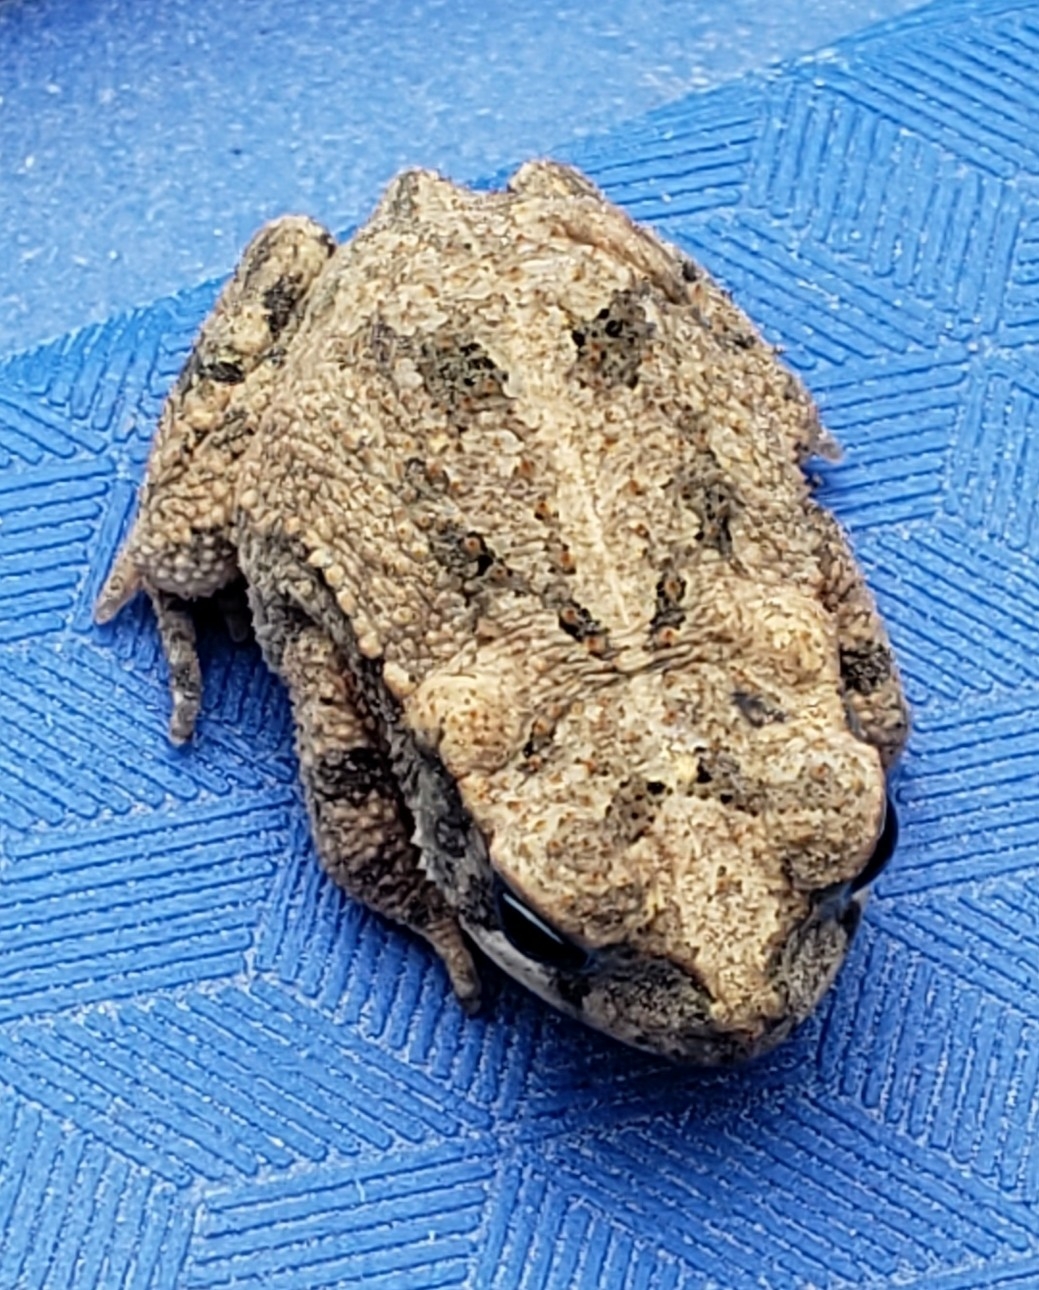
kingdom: Animalia
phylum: Chordata
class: Amphibia
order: Anura
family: Bufonidae
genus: Incilius
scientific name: Incilius nebulifer
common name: Gulf coast toad
